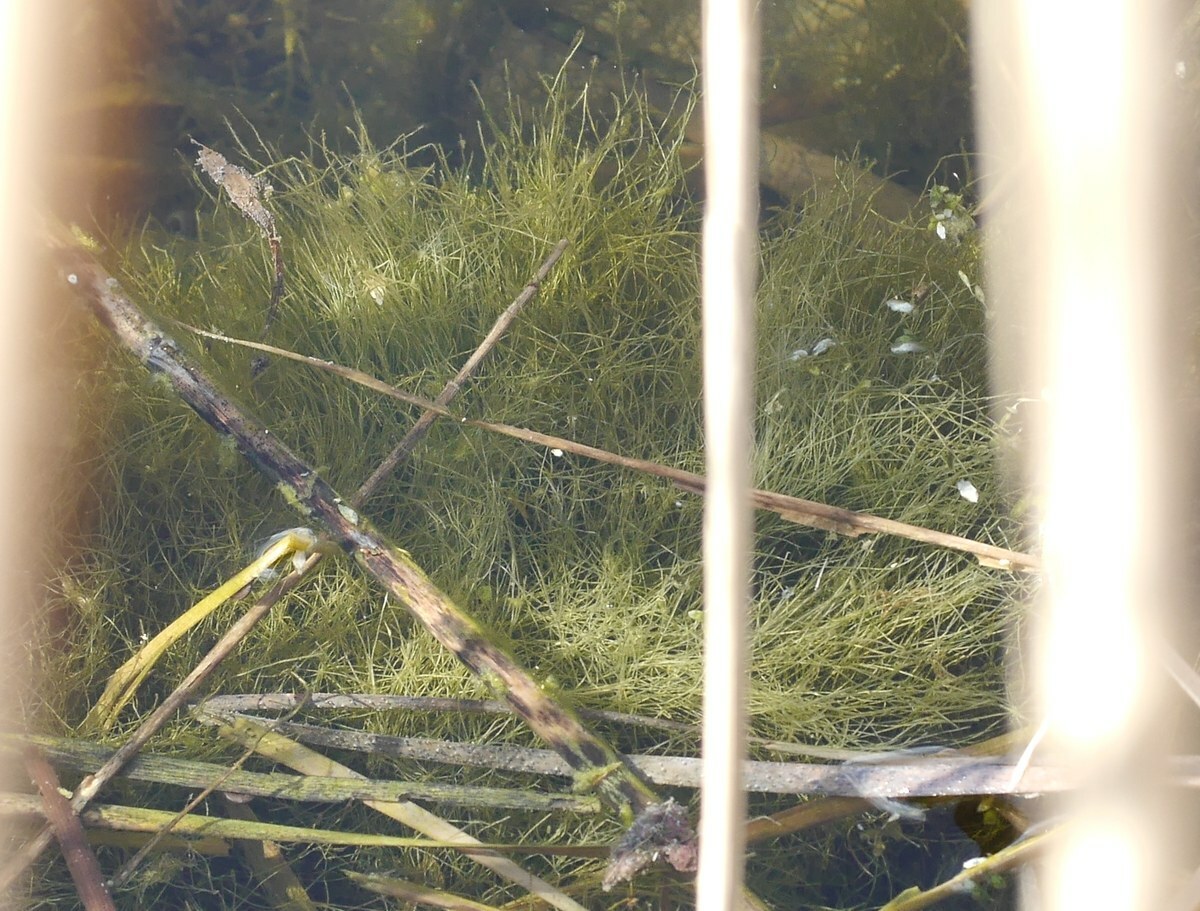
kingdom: Chromista
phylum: Ochrophyta
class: Xanthophyceae
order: Vaucheriales
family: Vaucheriaceae
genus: Vaucheria
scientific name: Vaucheria
